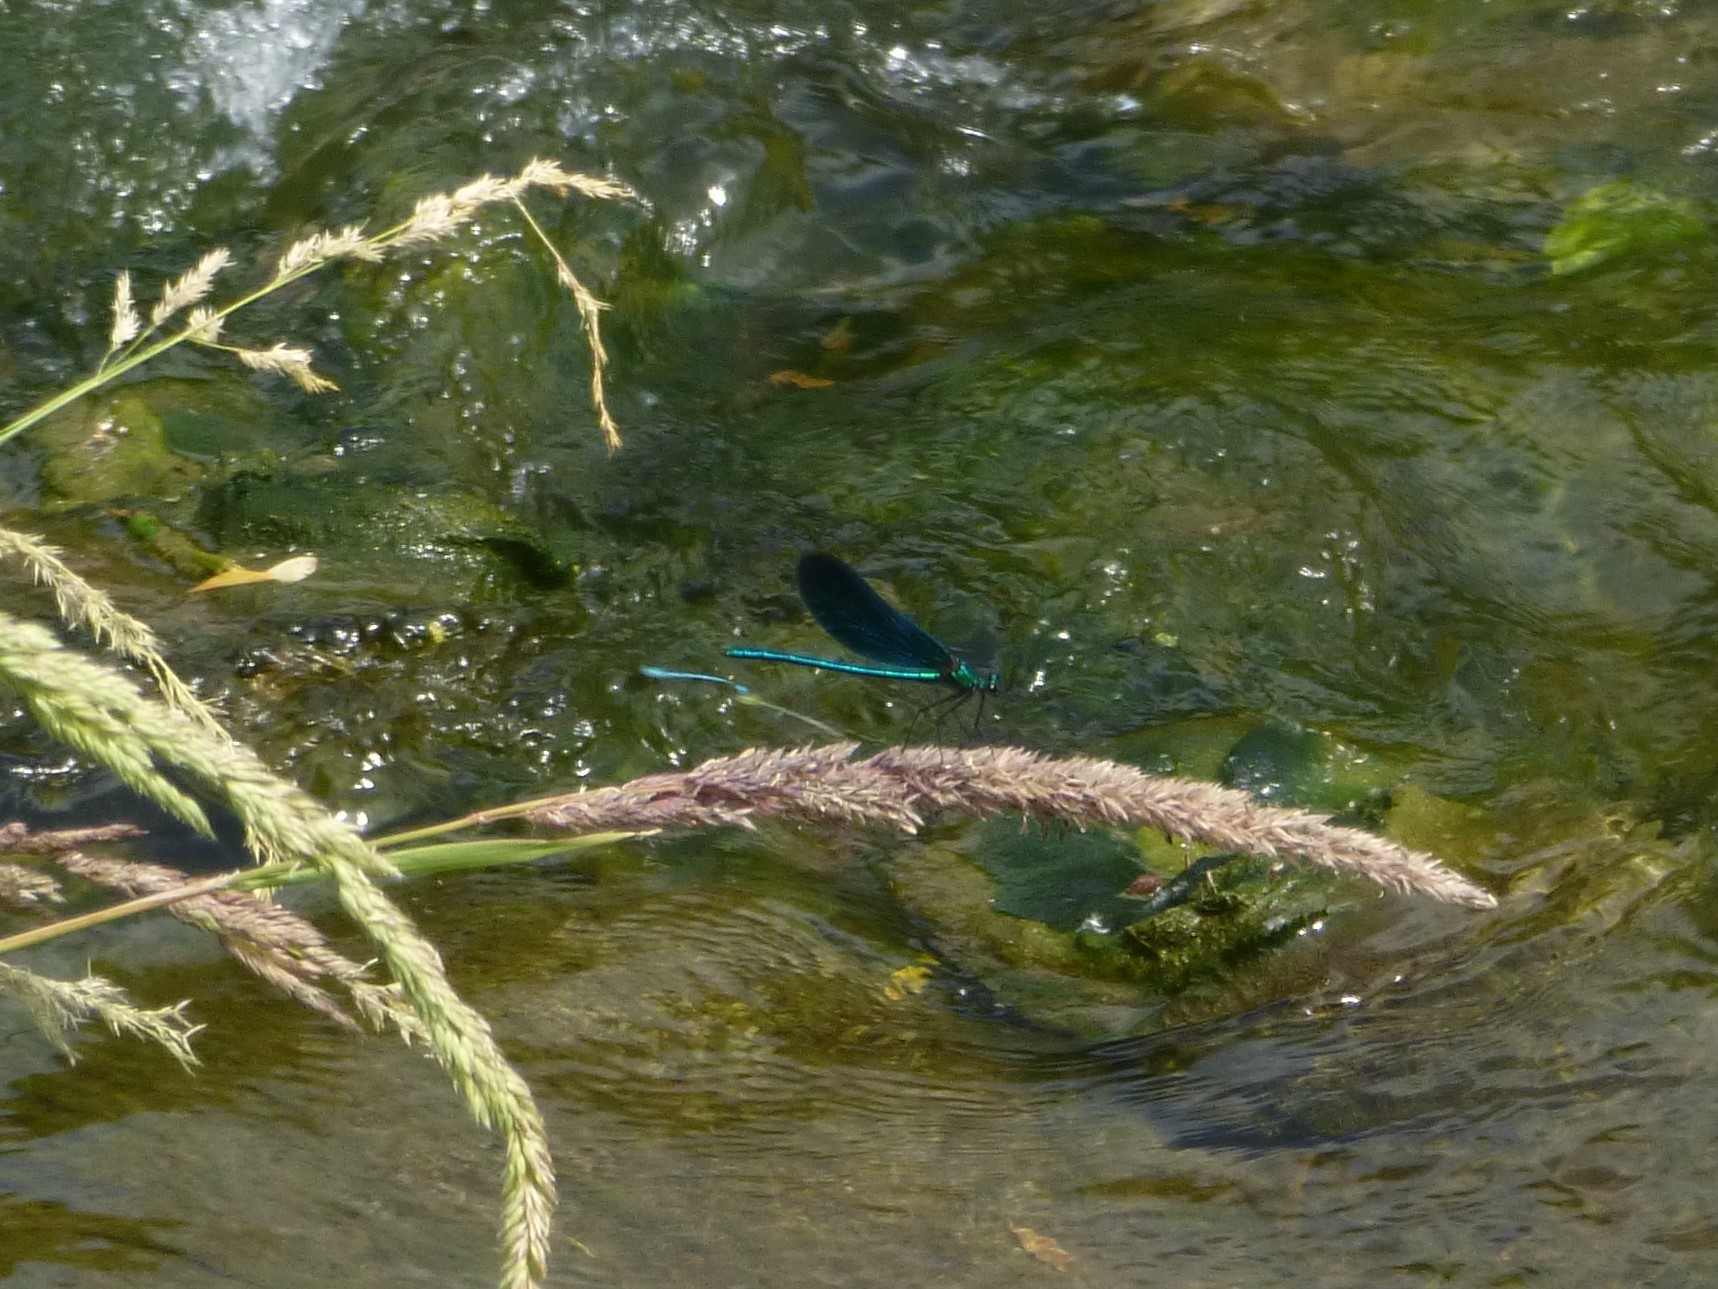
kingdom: Animalia
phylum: Arthropoda
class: Insecta
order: Odonata
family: Calopterygidae
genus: Calopteryx
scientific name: Calopteryx virgo
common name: Beautiful demoiselle
